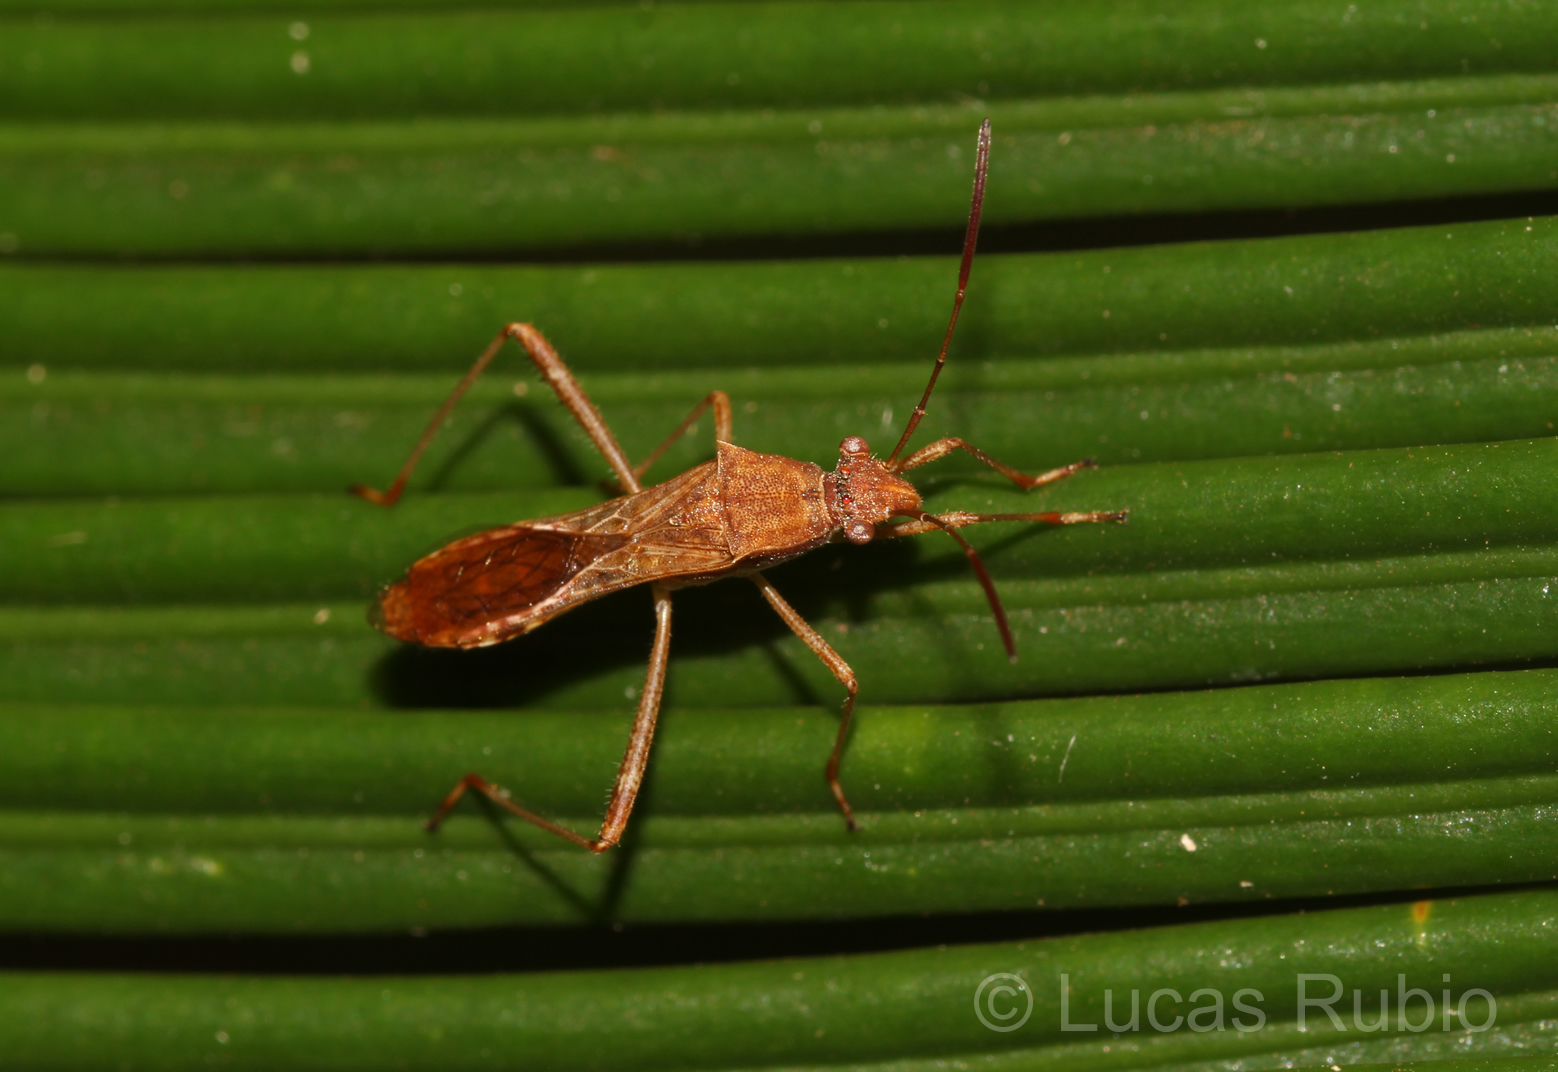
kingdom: Animalia
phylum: Arthropoda
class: Insecta
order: Hemiptera
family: Alydidae
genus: Neomegalotomus
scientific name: Neomegalotomus parvus
